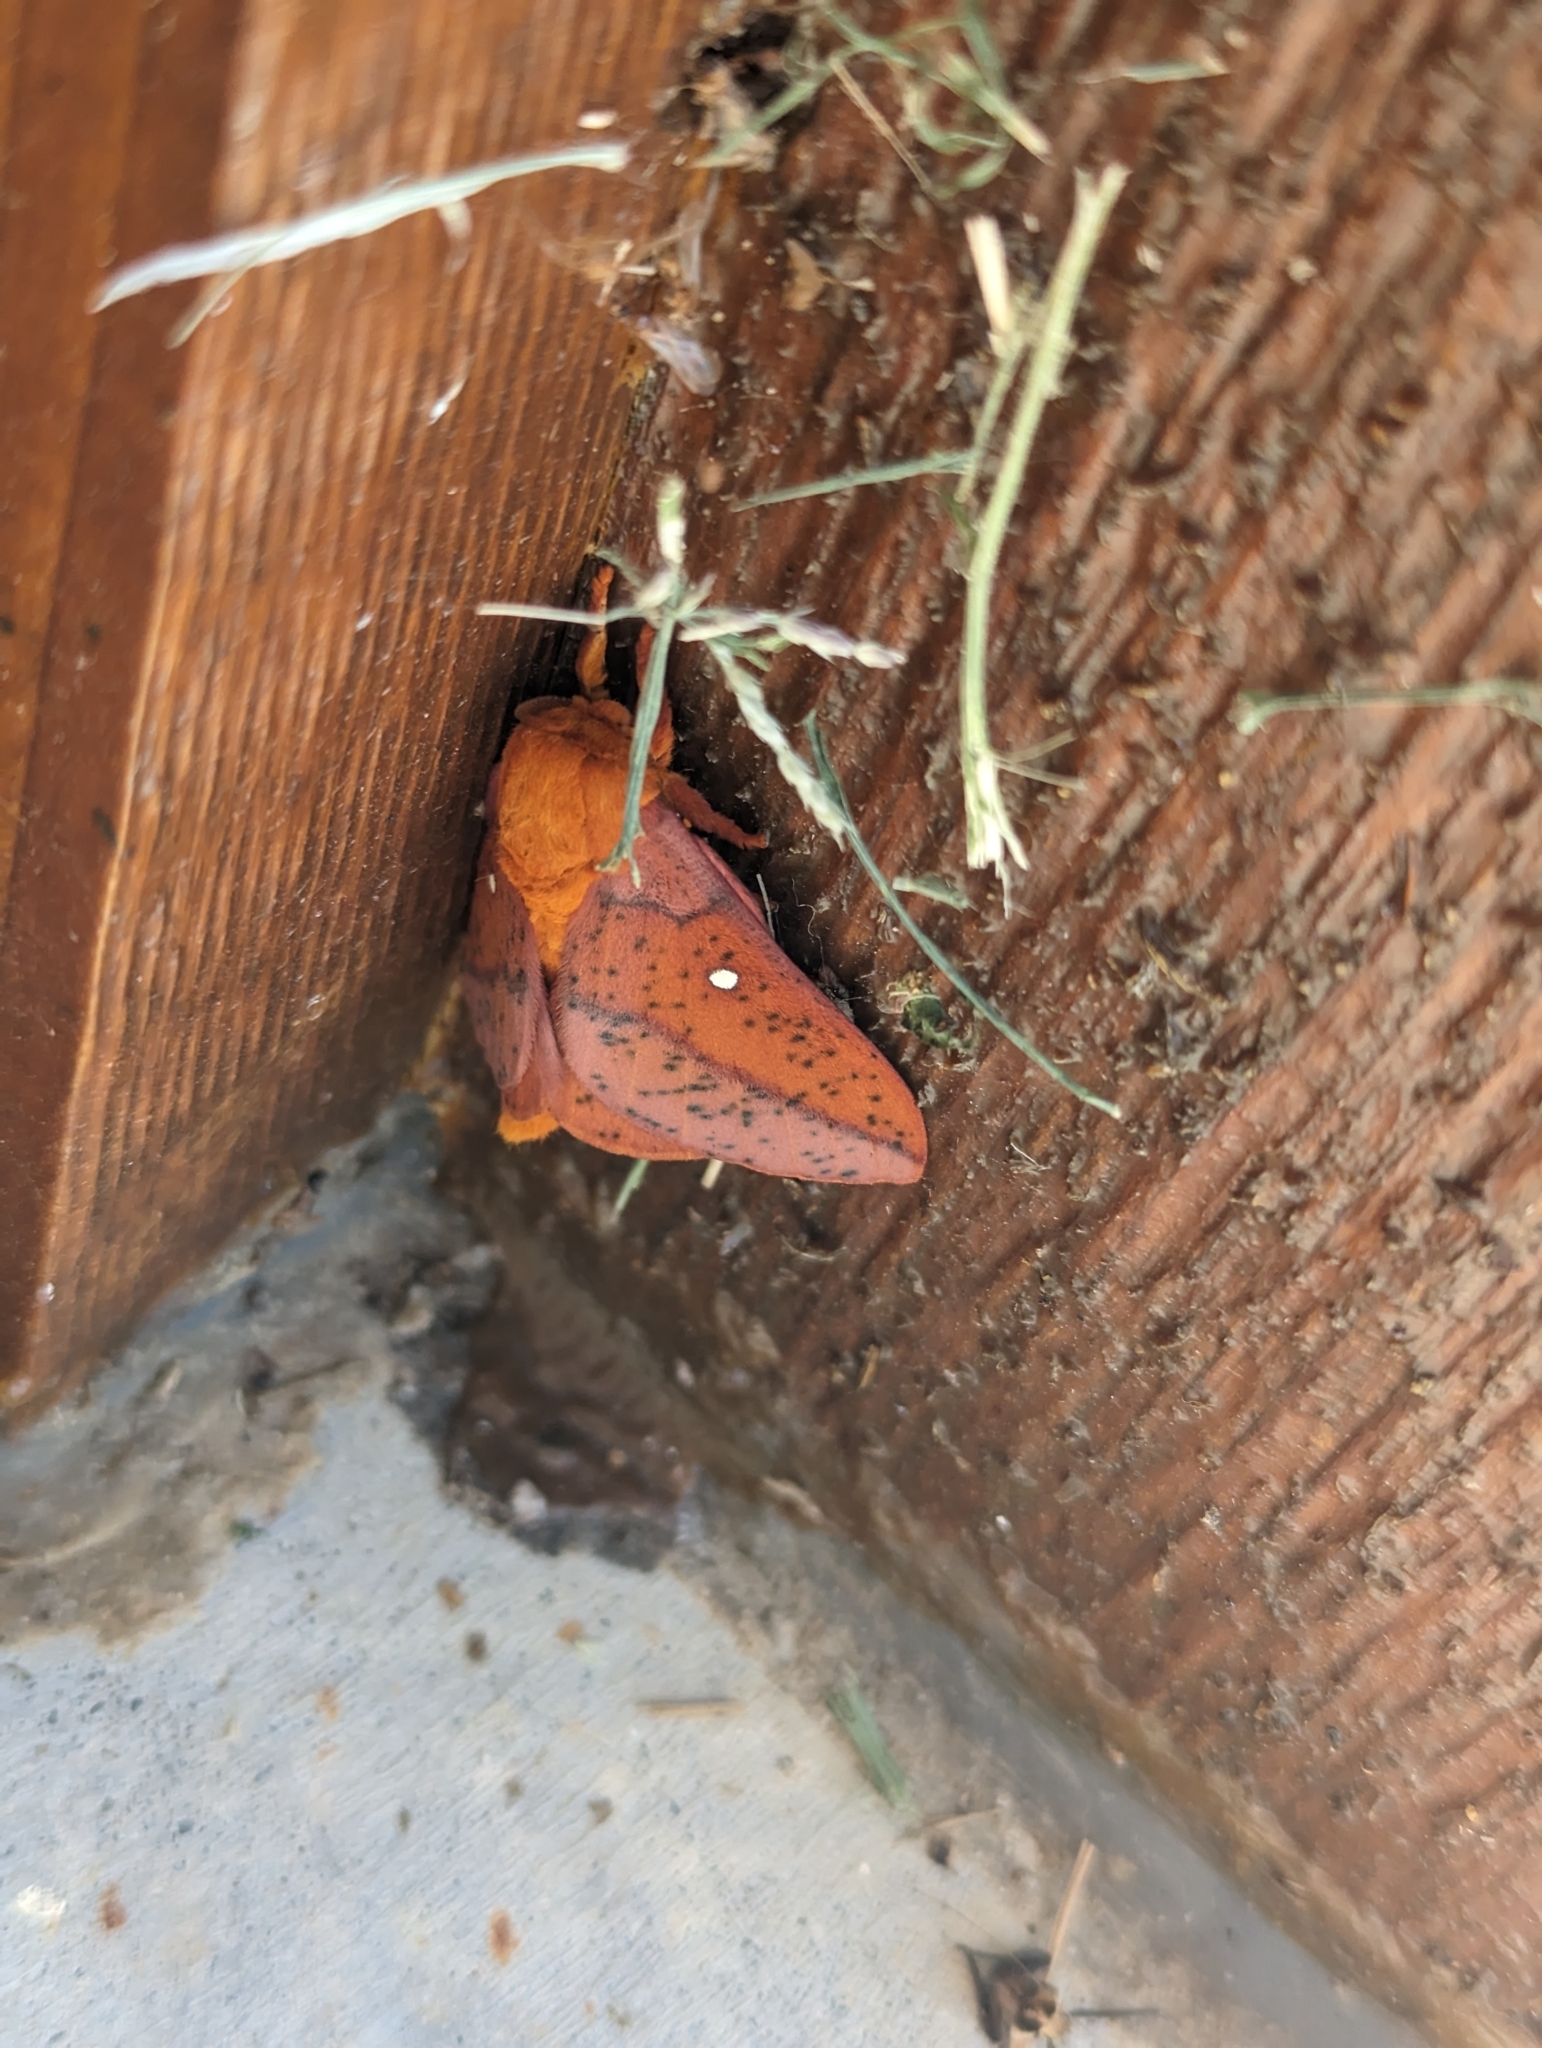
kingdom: Animalia
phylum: Arthropoda
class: Insecta
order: Lepidoptera
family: Saturniidae
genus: Anisota
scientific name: Anisota stigma
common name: Spiny oakworm moth
